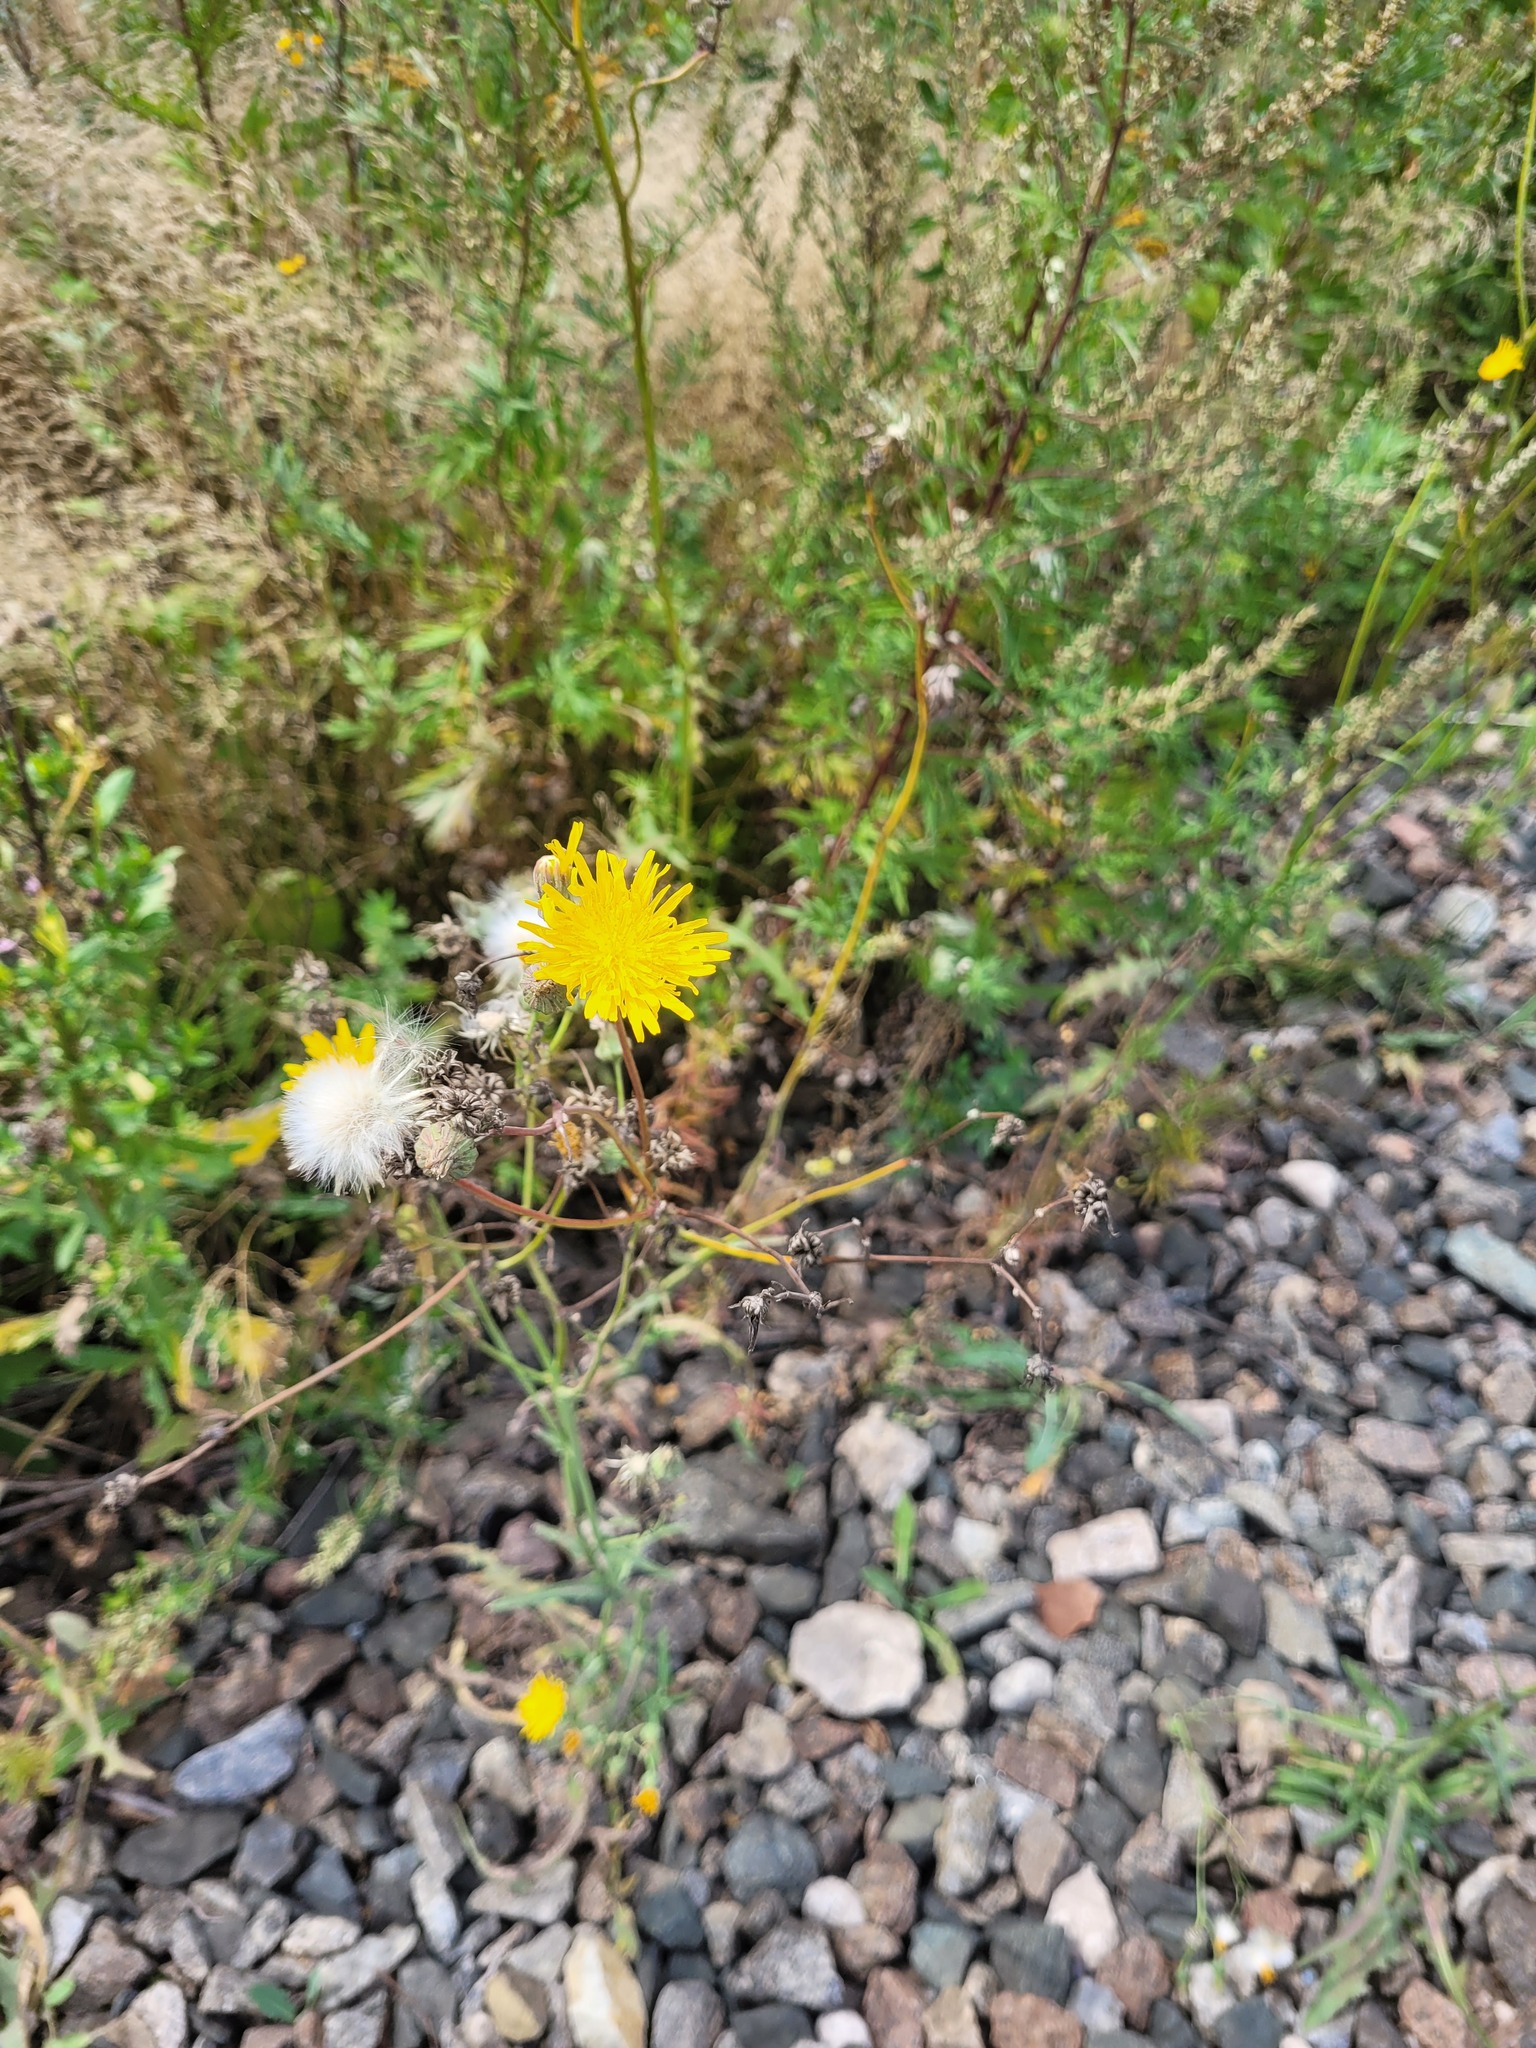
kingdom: Plantae
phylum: Tracheophyta
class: Magnoliopsida
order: Asterales
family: Asteraceae
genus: Sonchus
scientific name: Sonchus arvensis
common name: Perennial sow-thistle
